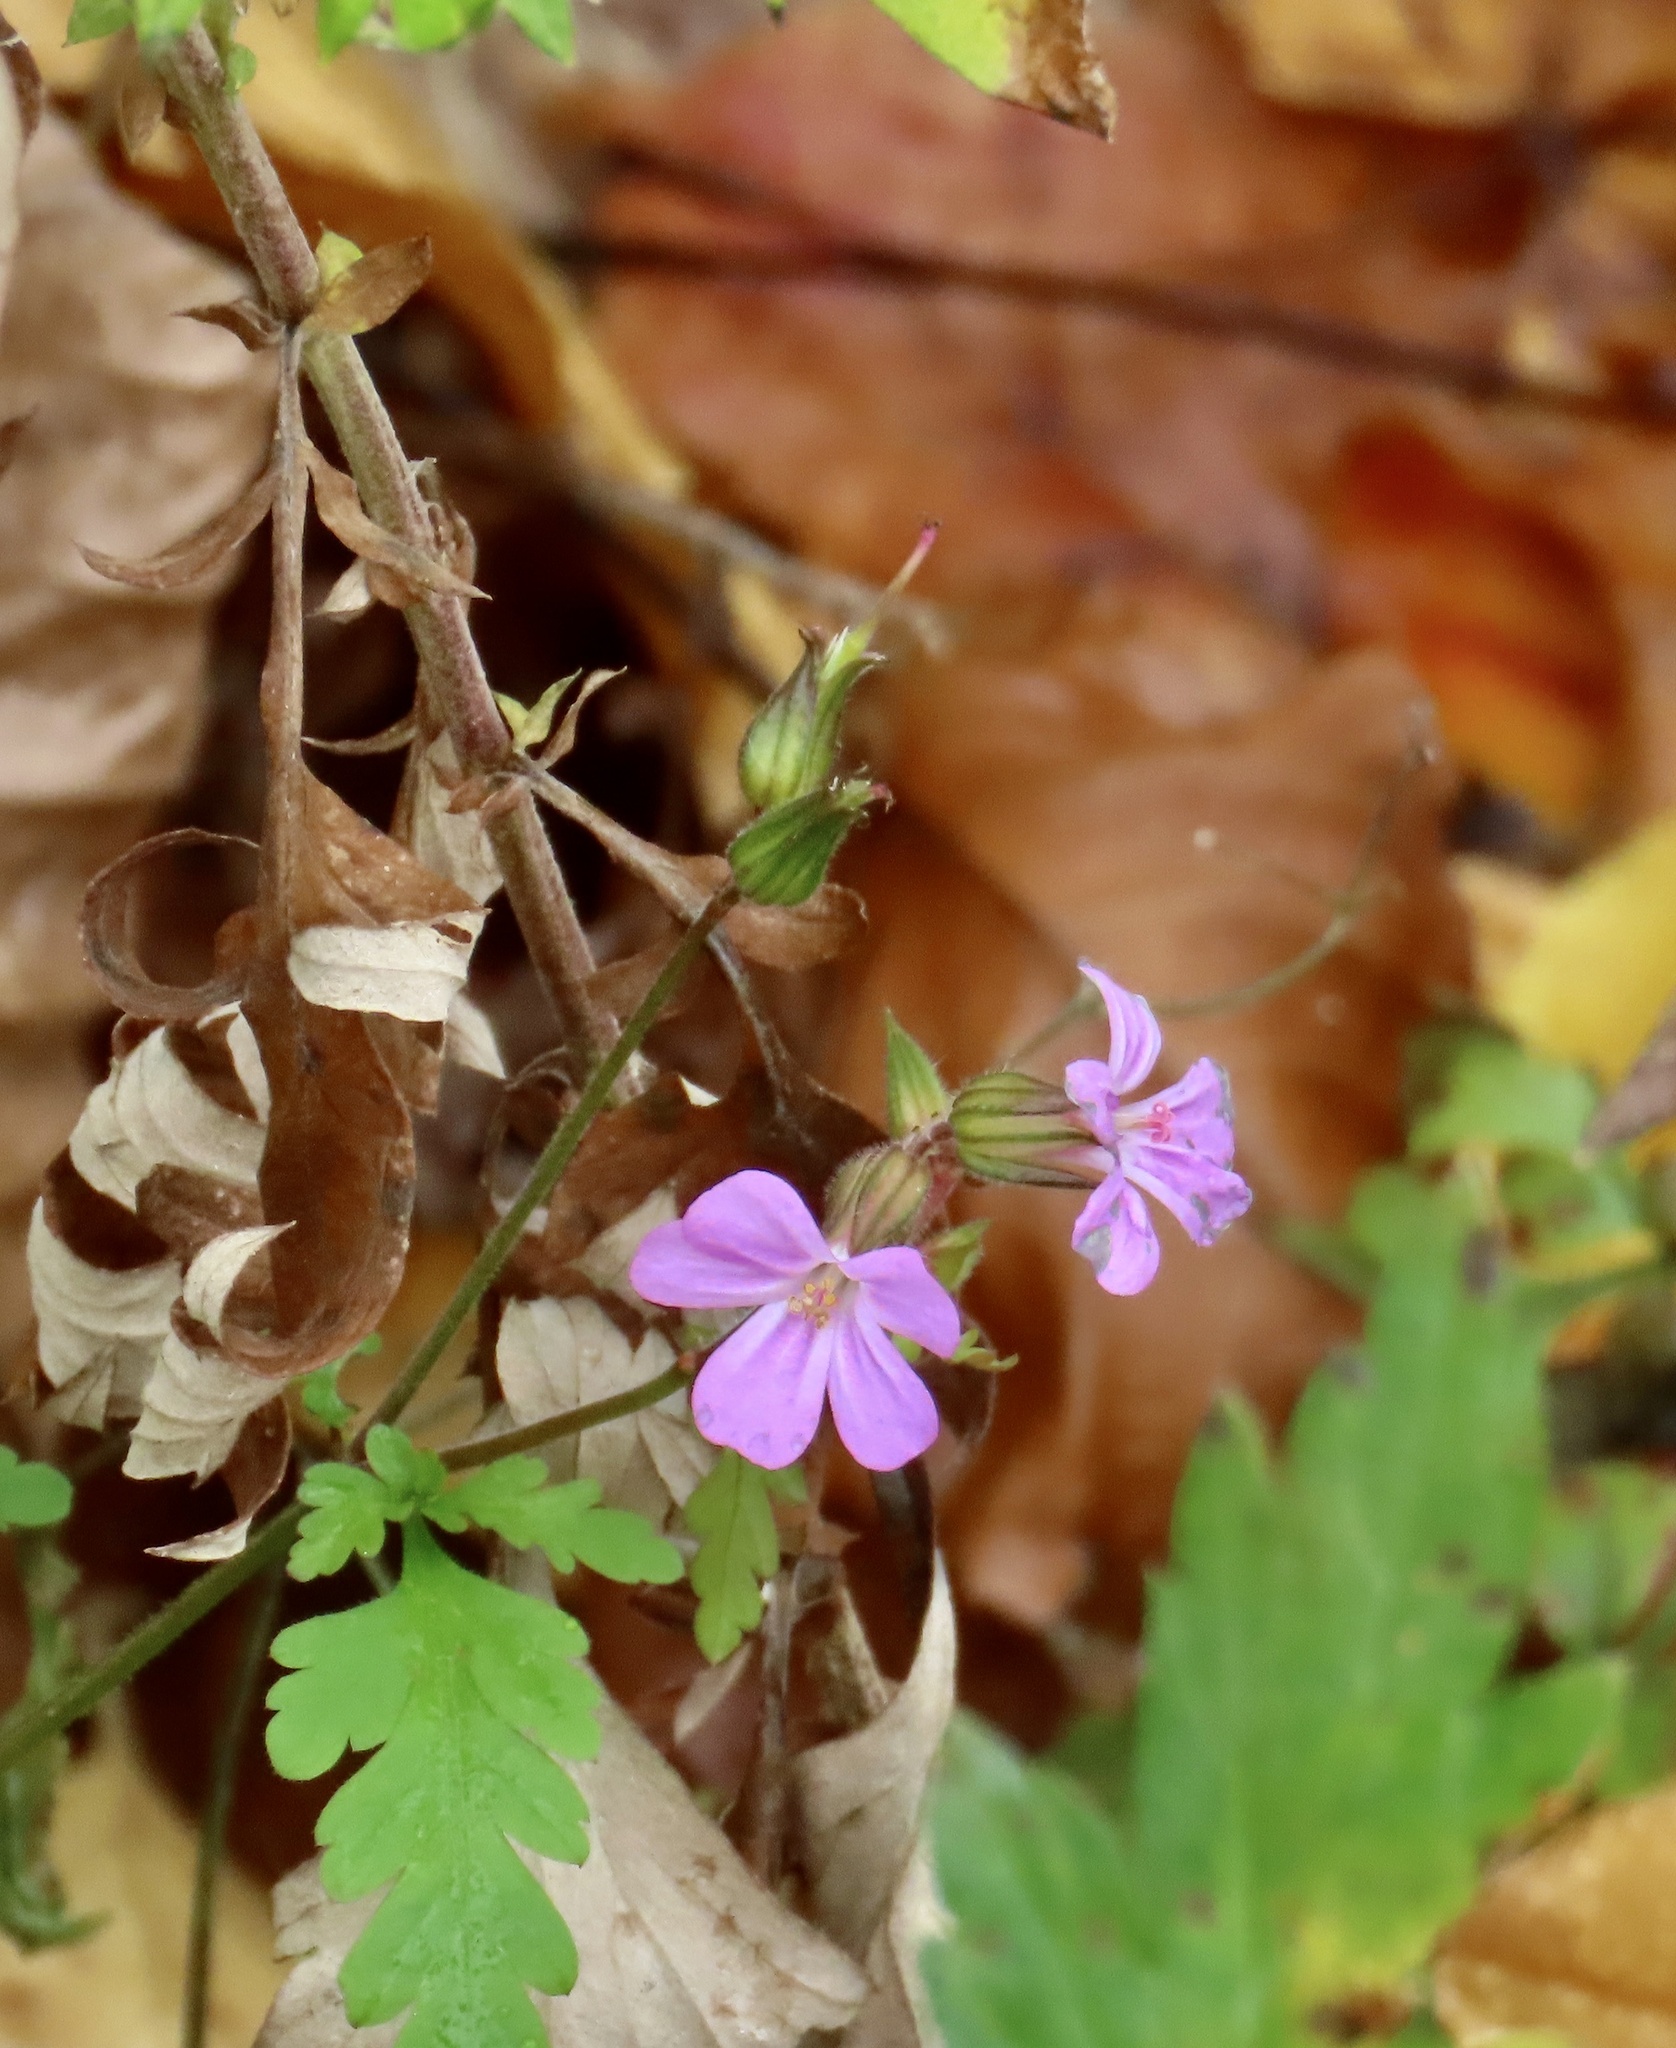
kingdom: Plantae
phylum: Tracheophyta
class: Magnoliopsida
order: Geraniales
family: Geraniaceae
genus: Geranium
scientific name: Geranium robertianum
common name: Herb-robert
